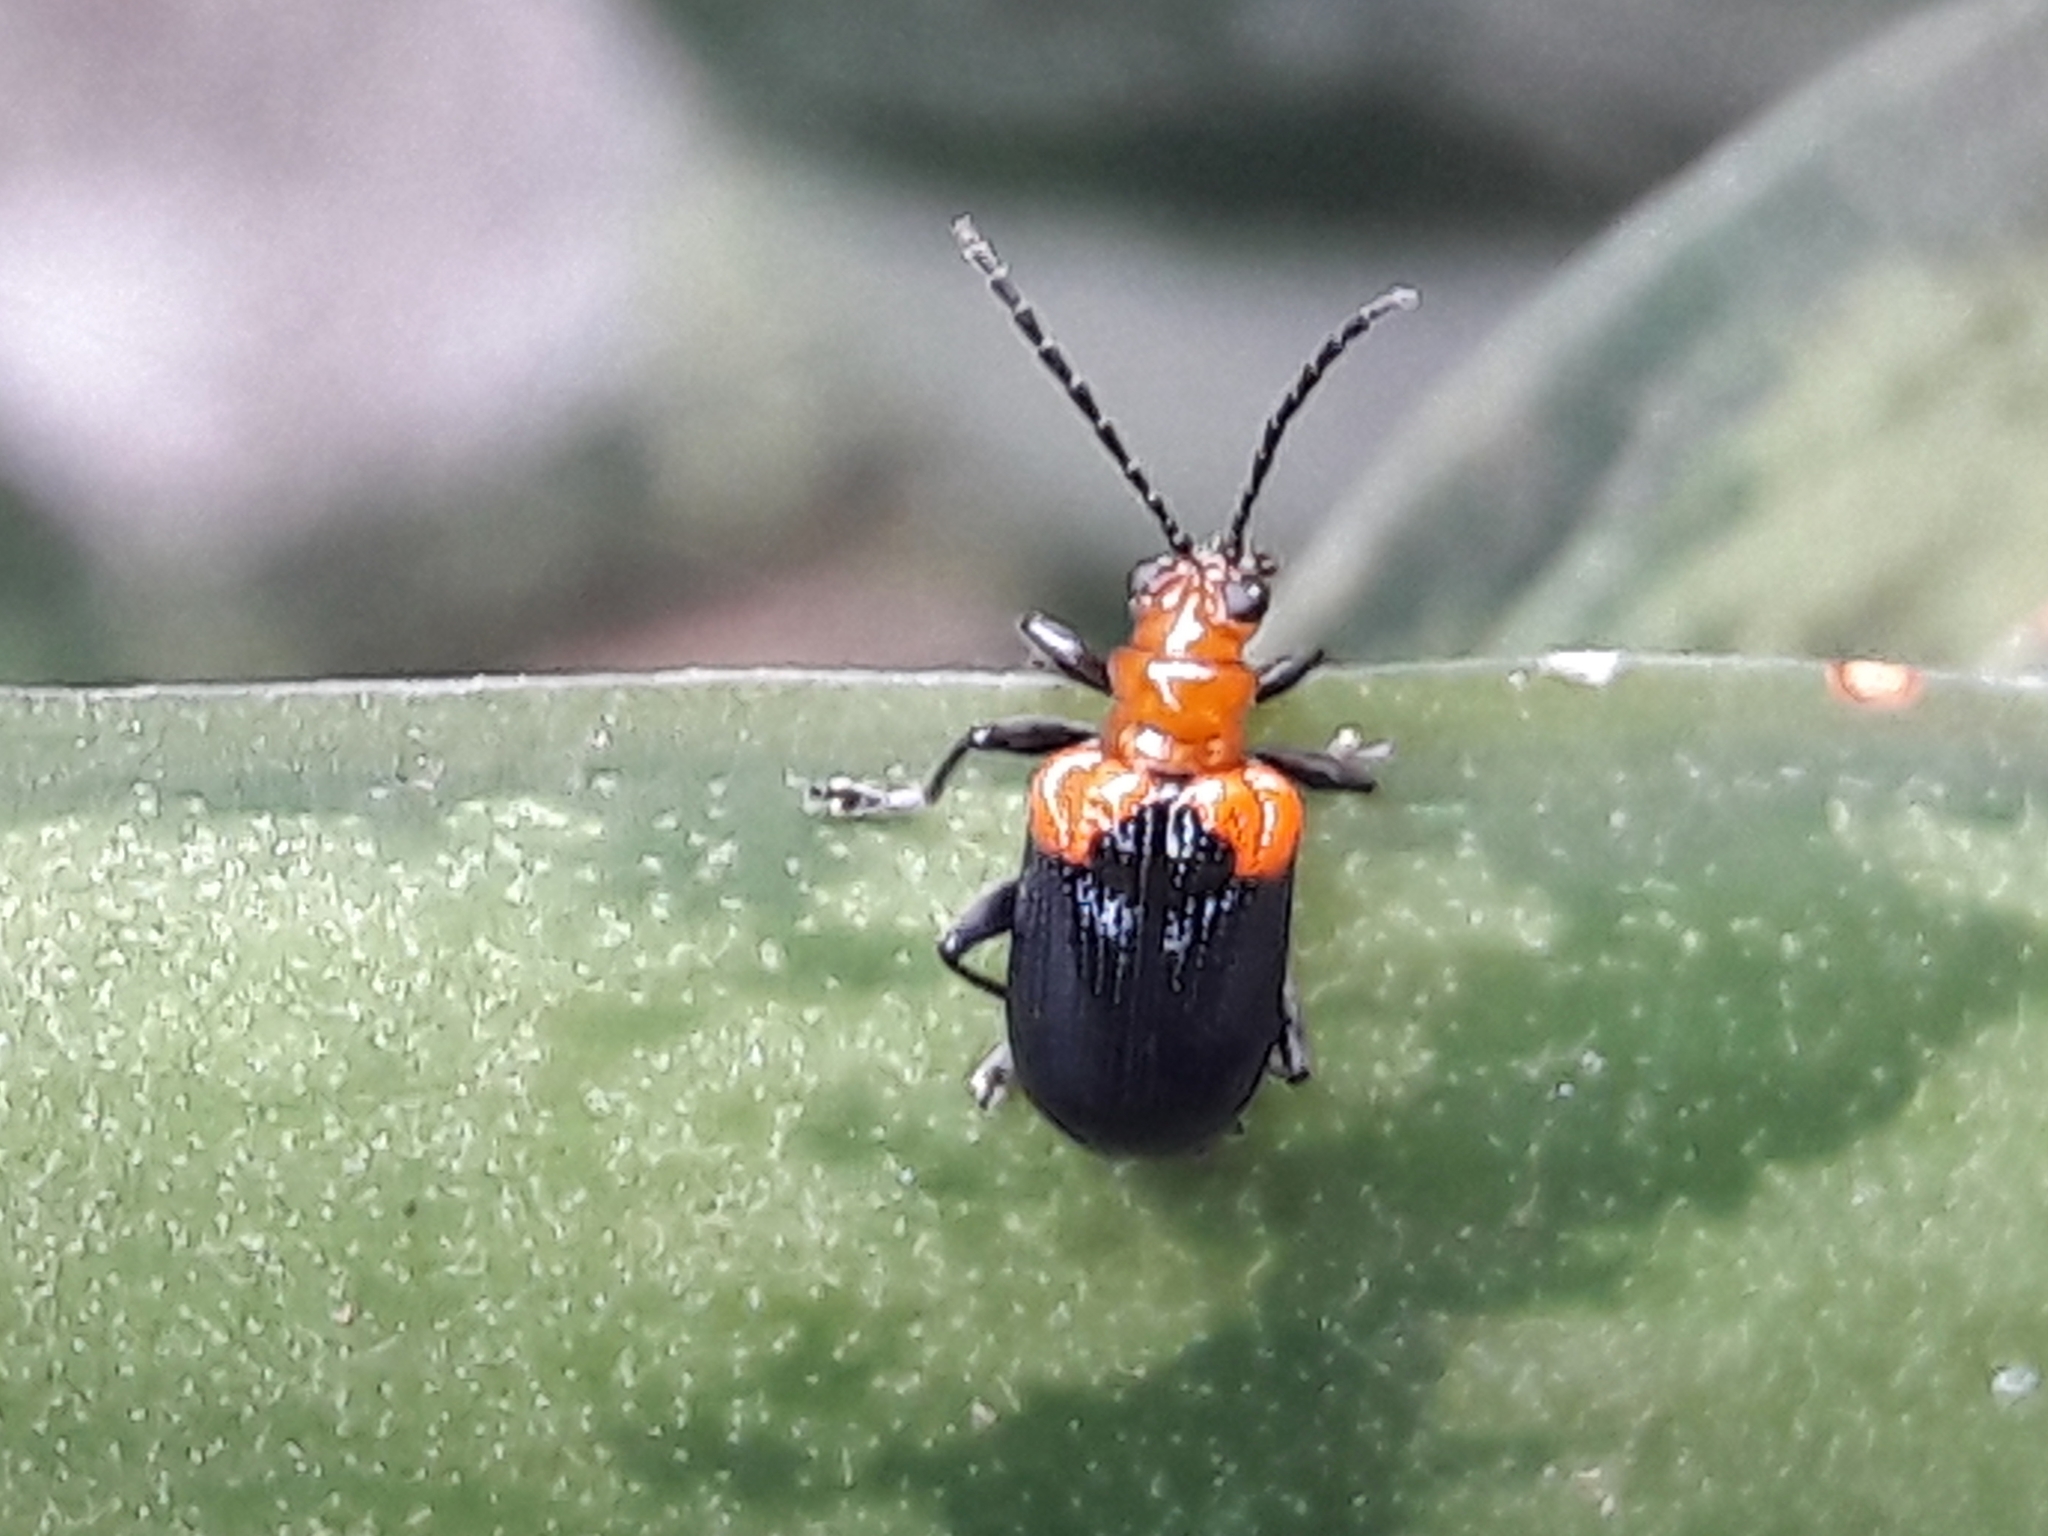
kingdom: Animalia
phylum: Arthropoda
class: Insecta
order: Coleoptera
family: Chrysomelidae
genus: Neolema
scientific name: Neolema
